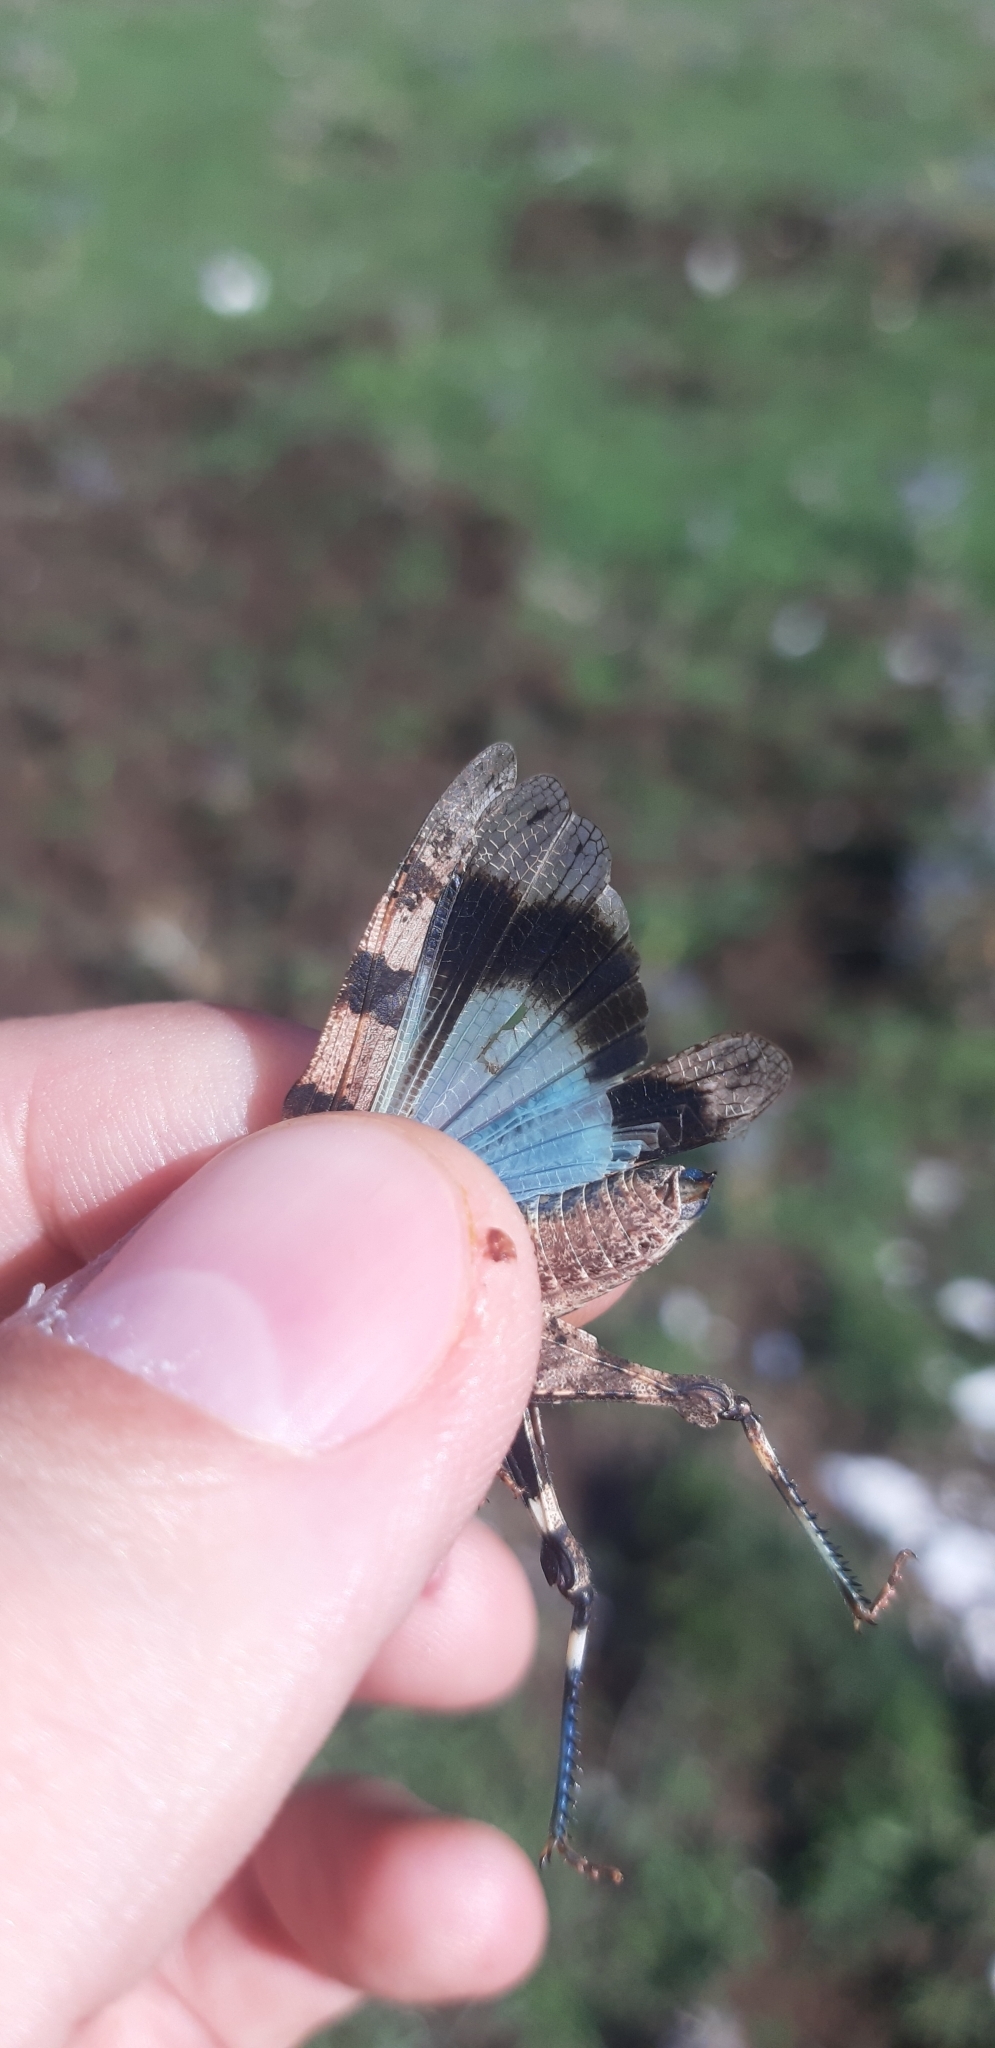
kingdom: Animalia
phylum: Arthropoda
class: Insecta
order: Orthoptera
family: Acrididae
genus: Oedipoda
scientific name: Oedipoda caerulescens
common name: Blue-winged grasshopper
